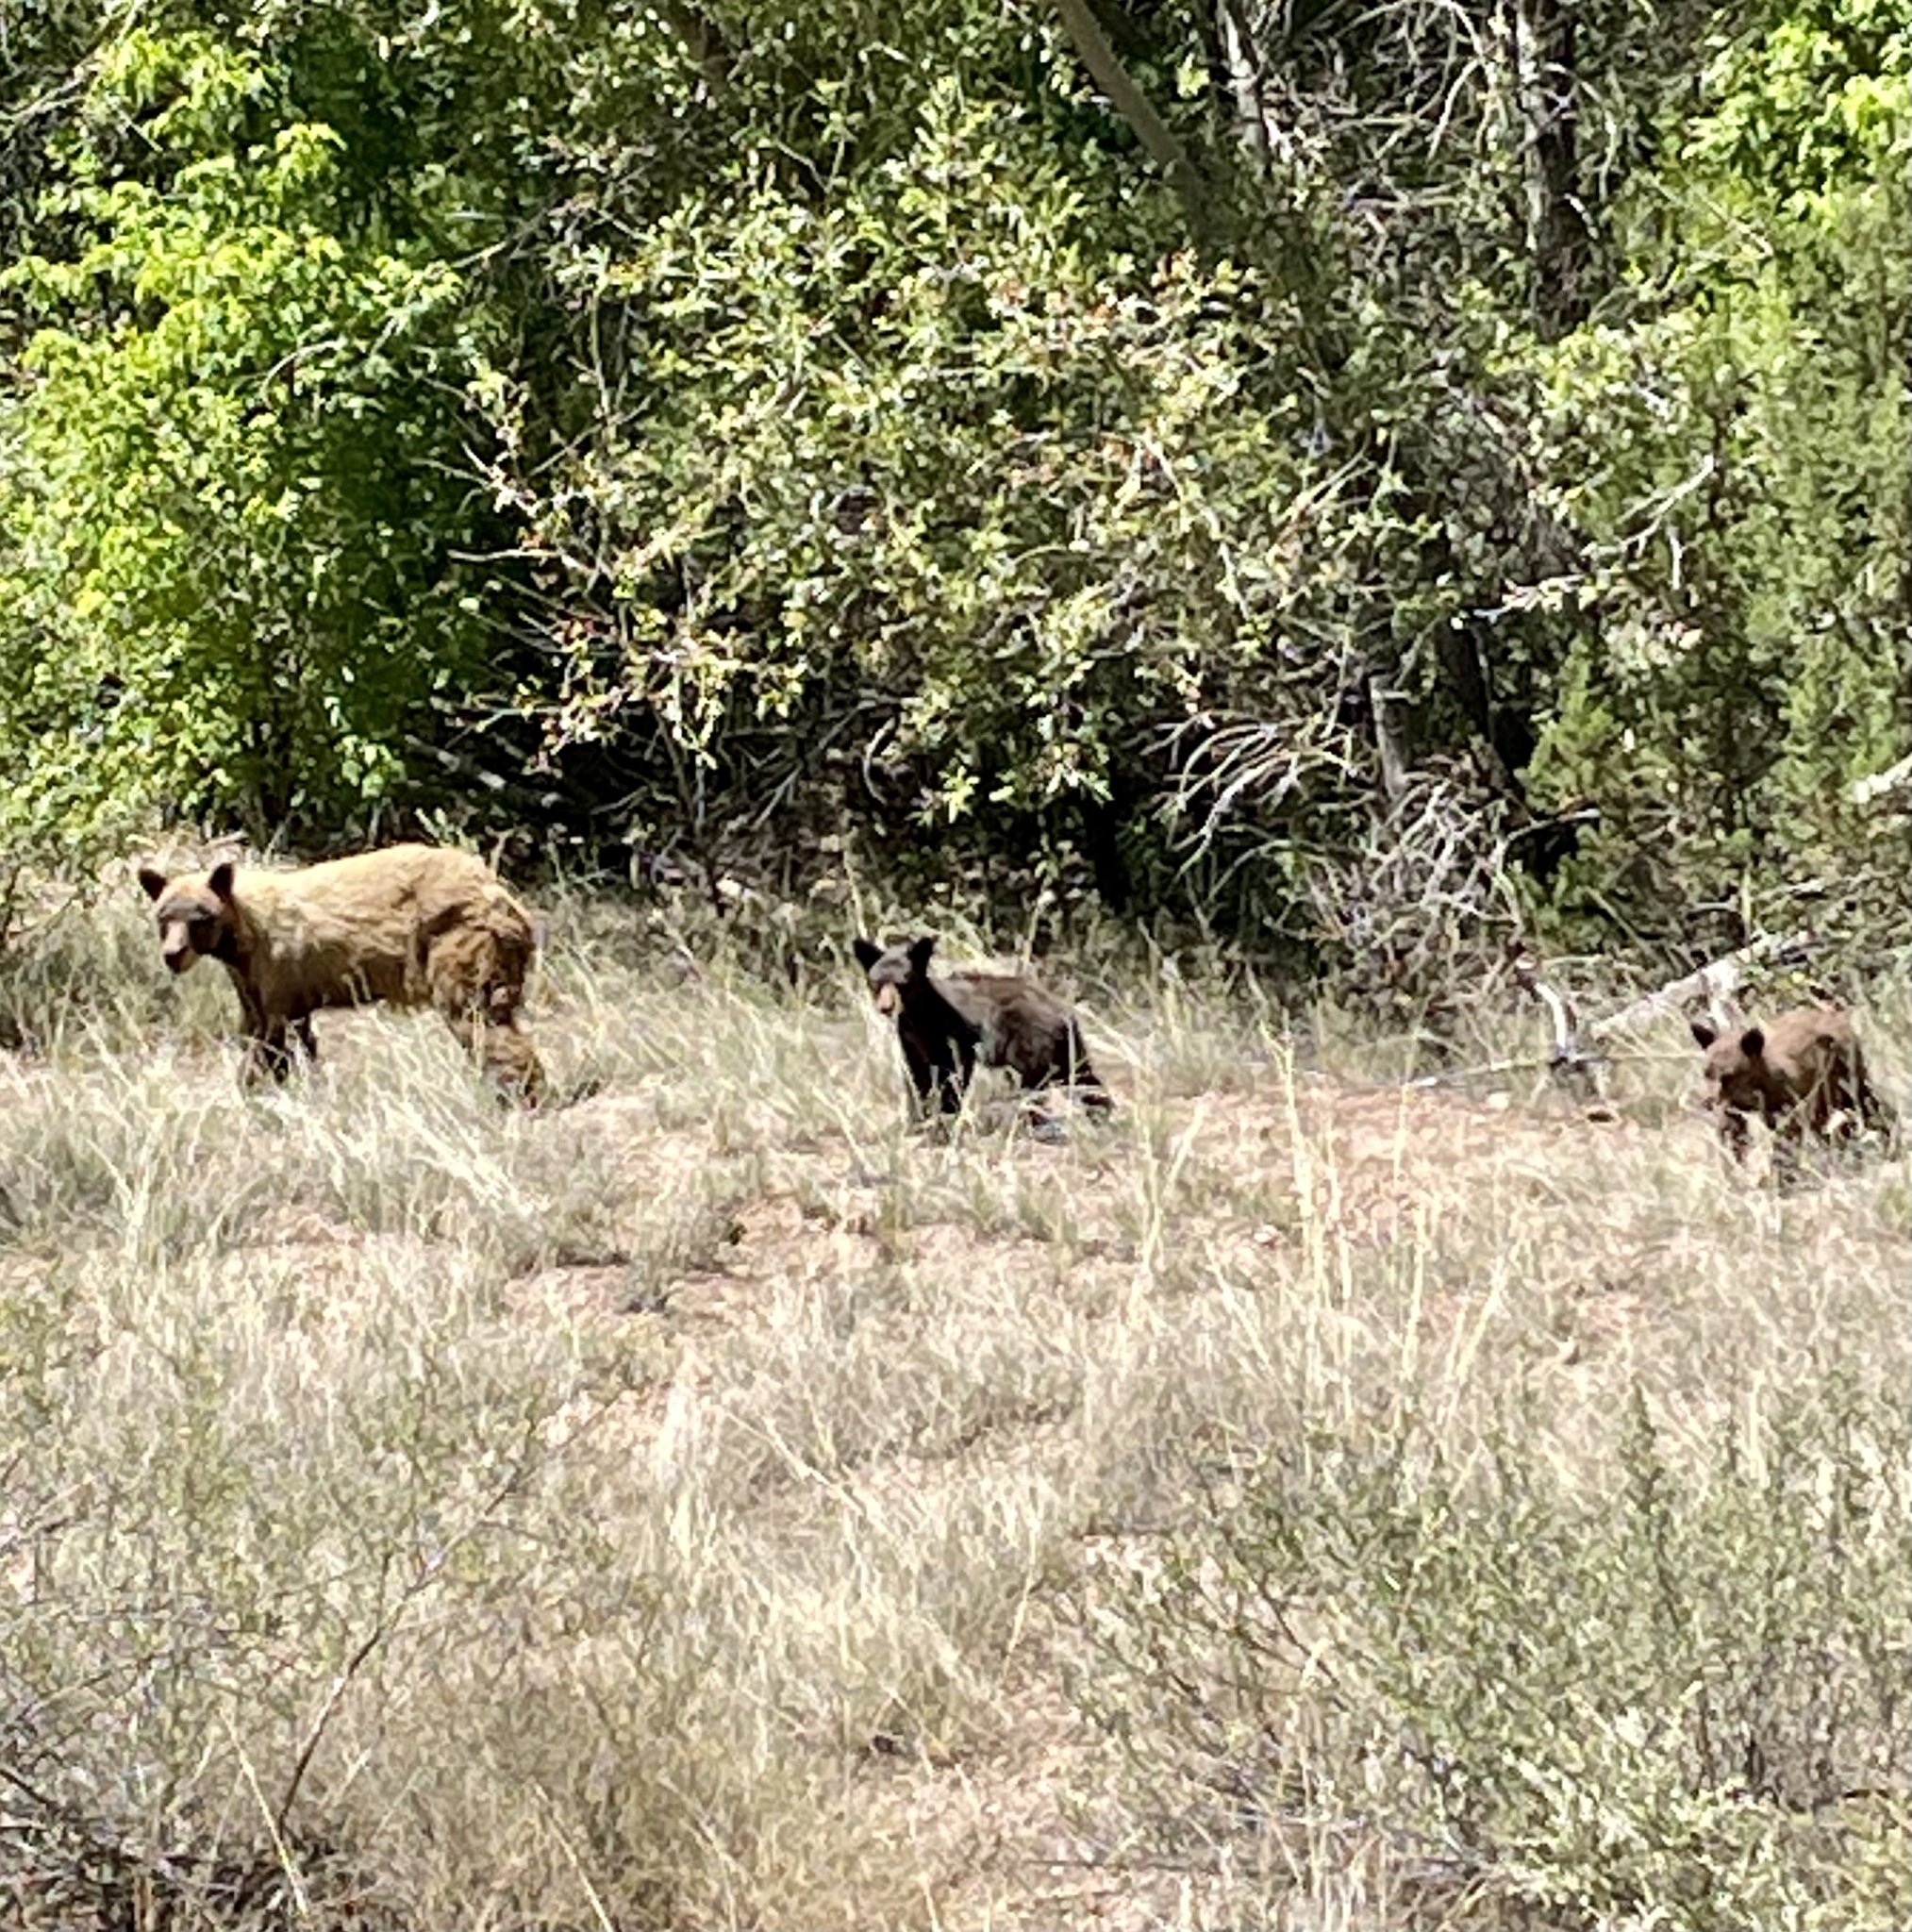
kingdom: Animalia
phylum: Chordata
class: Mammalia
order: Carnivora
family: Ursidae
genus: Ursus
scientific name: Ursus americanus
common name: American black bear
